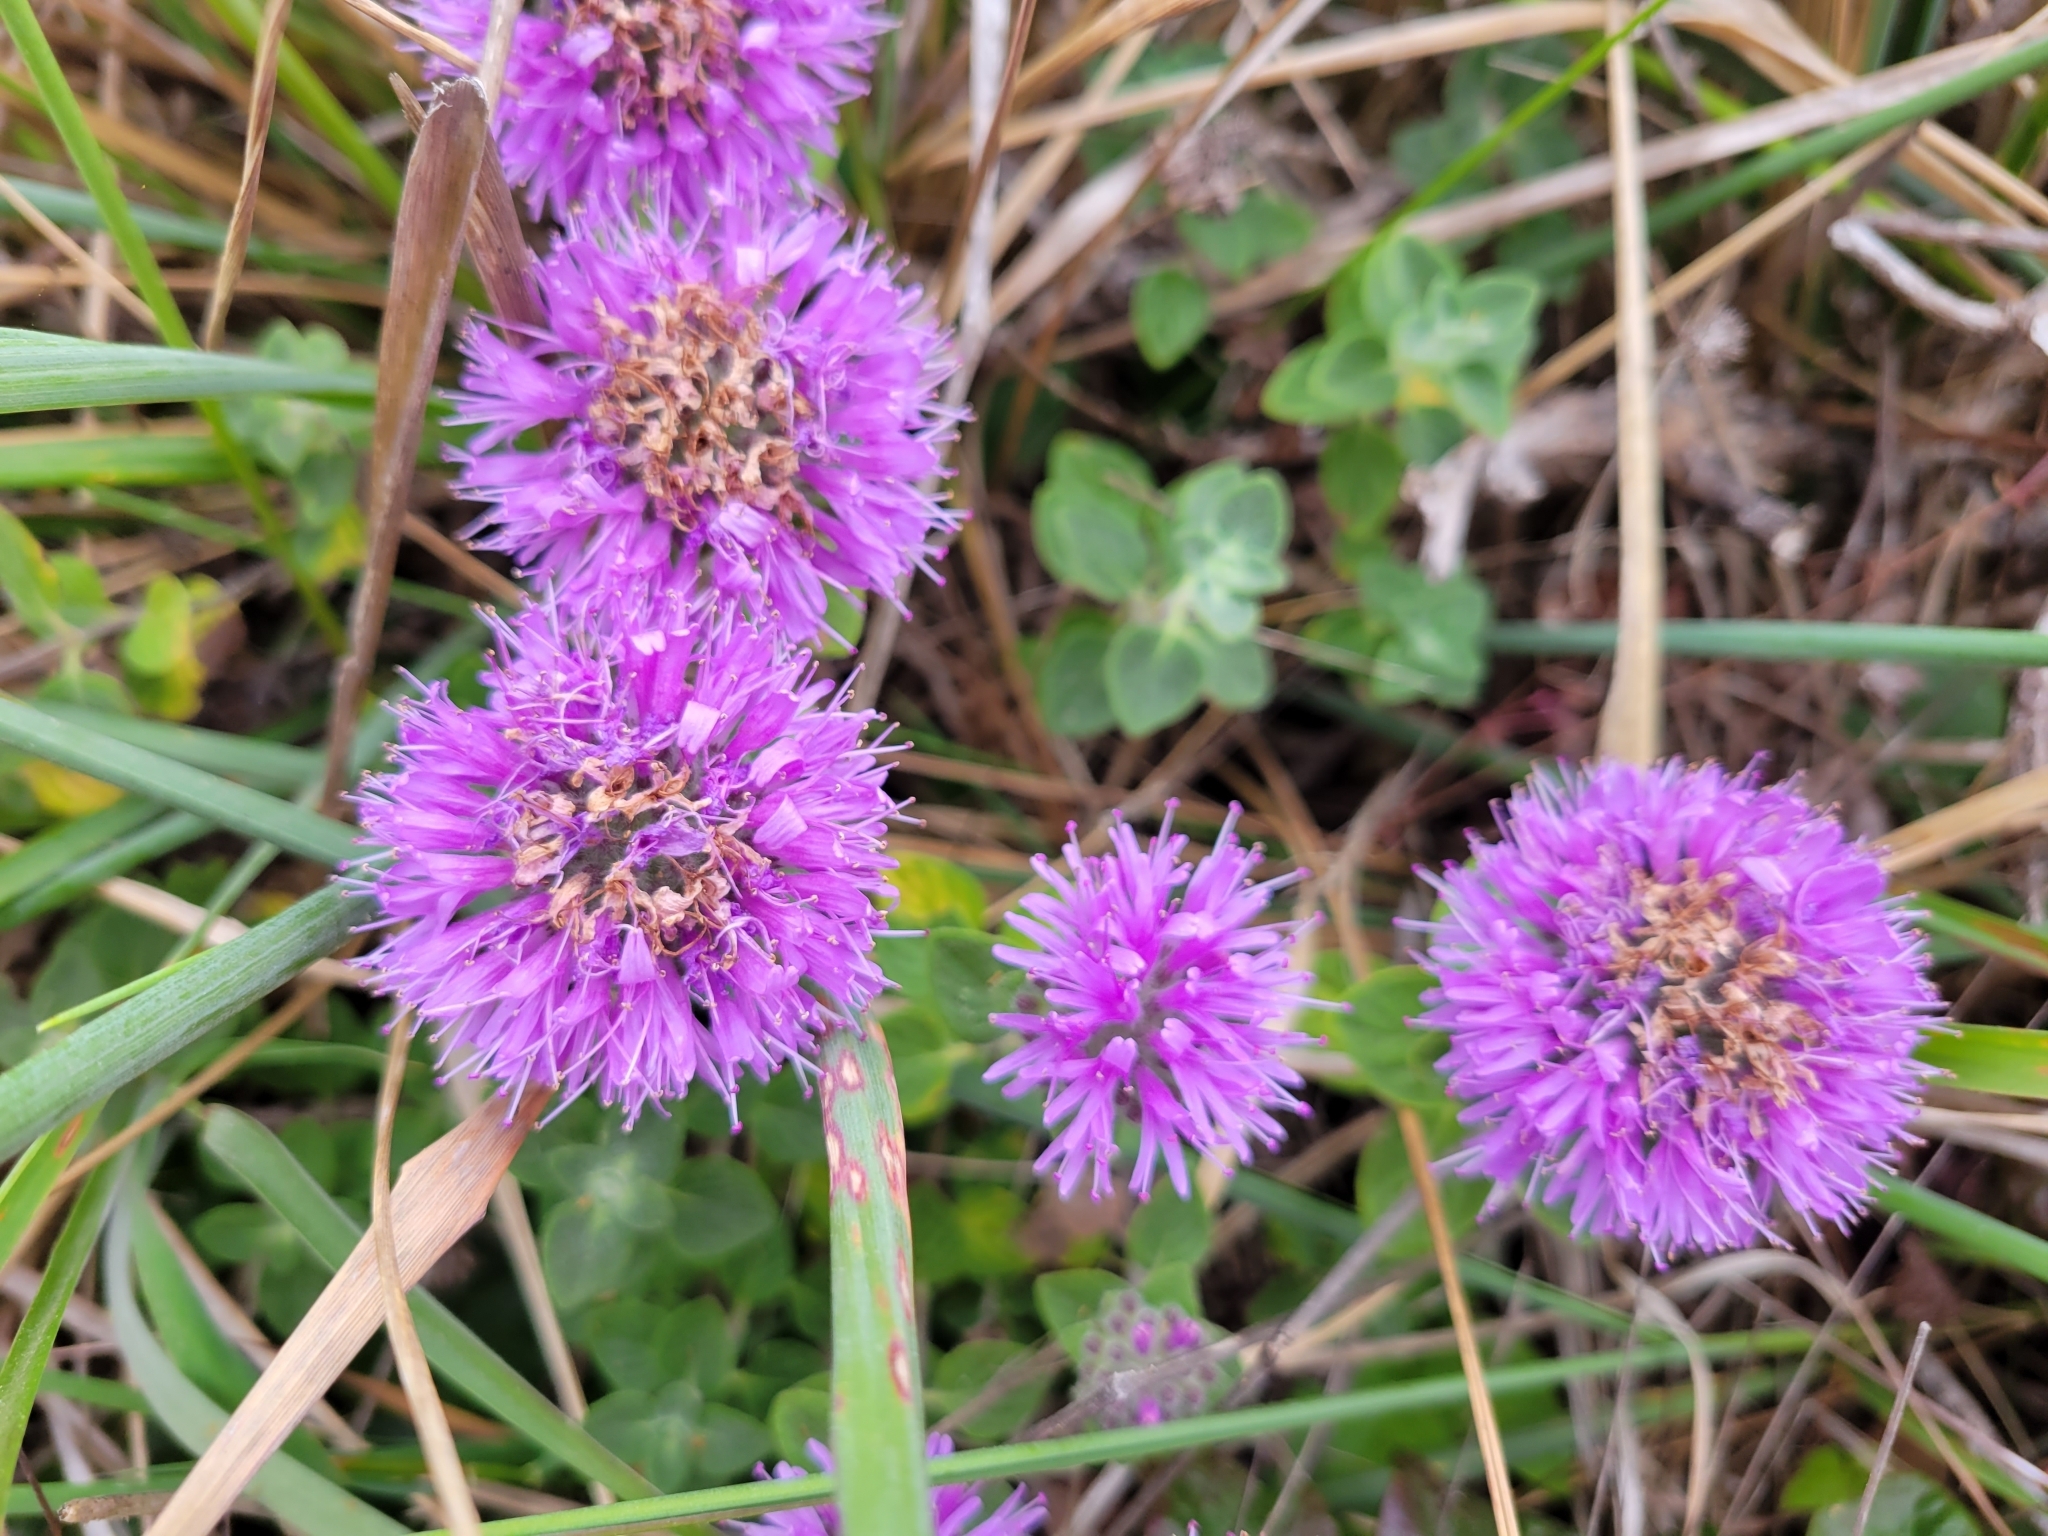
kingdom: Plantae
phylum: Tracheophyta
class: Magnoliopsida
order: Lamiales
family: Lamiaceae
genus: Monardella
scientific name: Monardella odoratissima
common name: Pacific monardella
